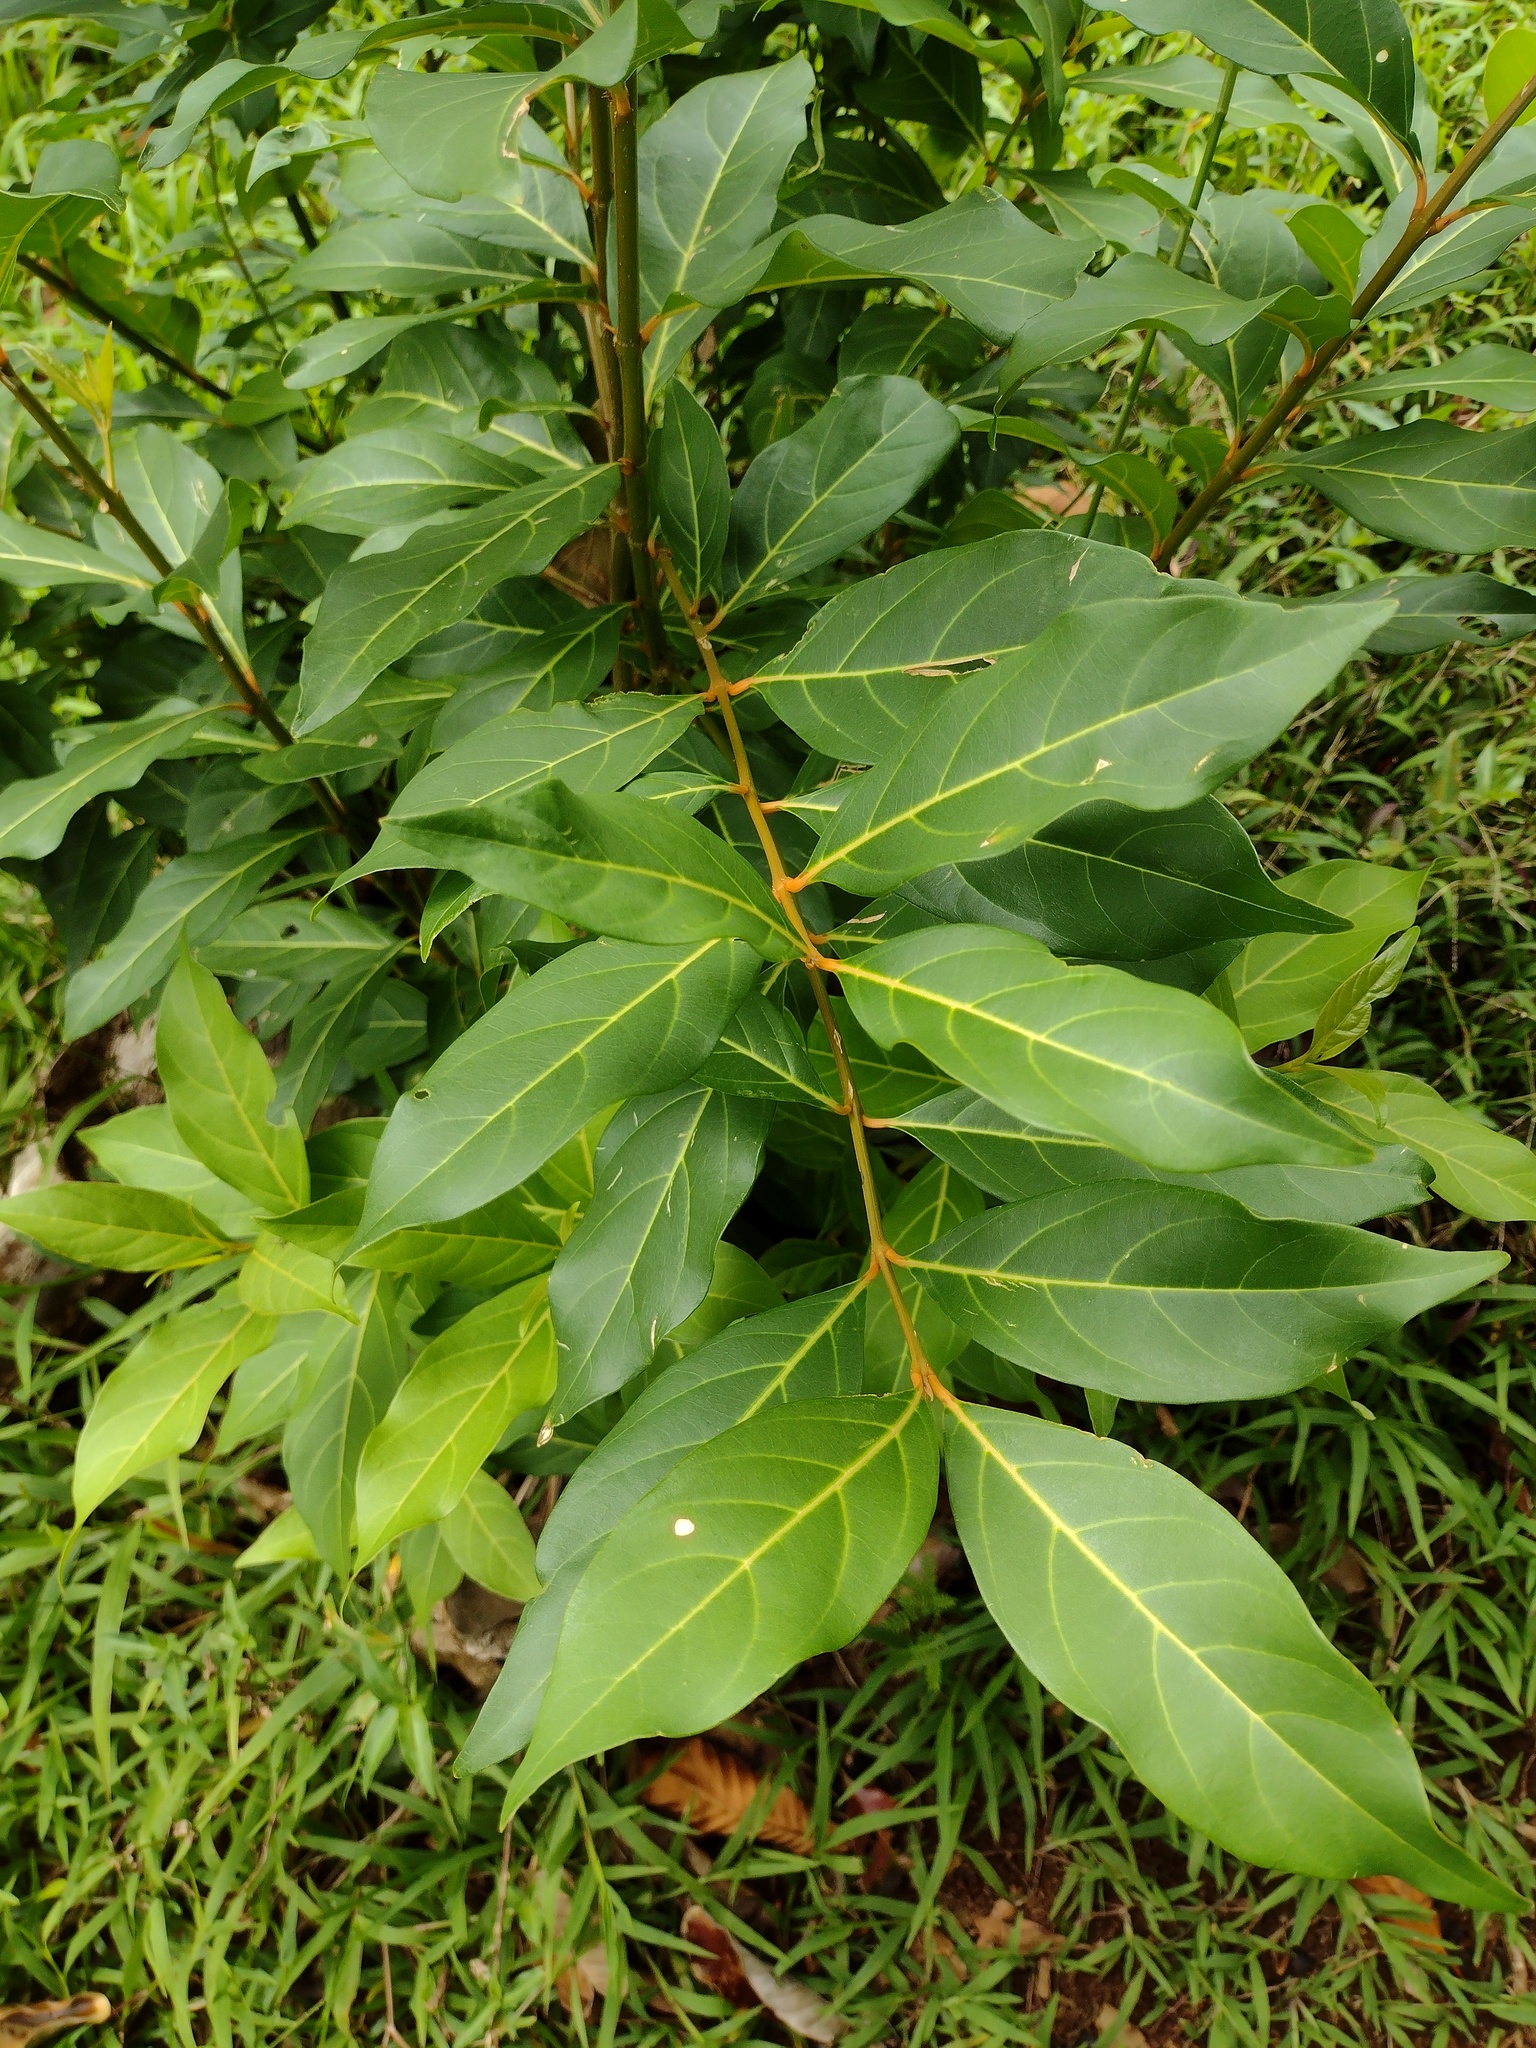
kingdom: Plantae
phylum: Tracheophyta
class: Magnoliopsida
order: Lamiales
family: Verbenaceae
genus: Citharexylum
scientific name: Citharexylum spinosum
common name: Fiddlewood
